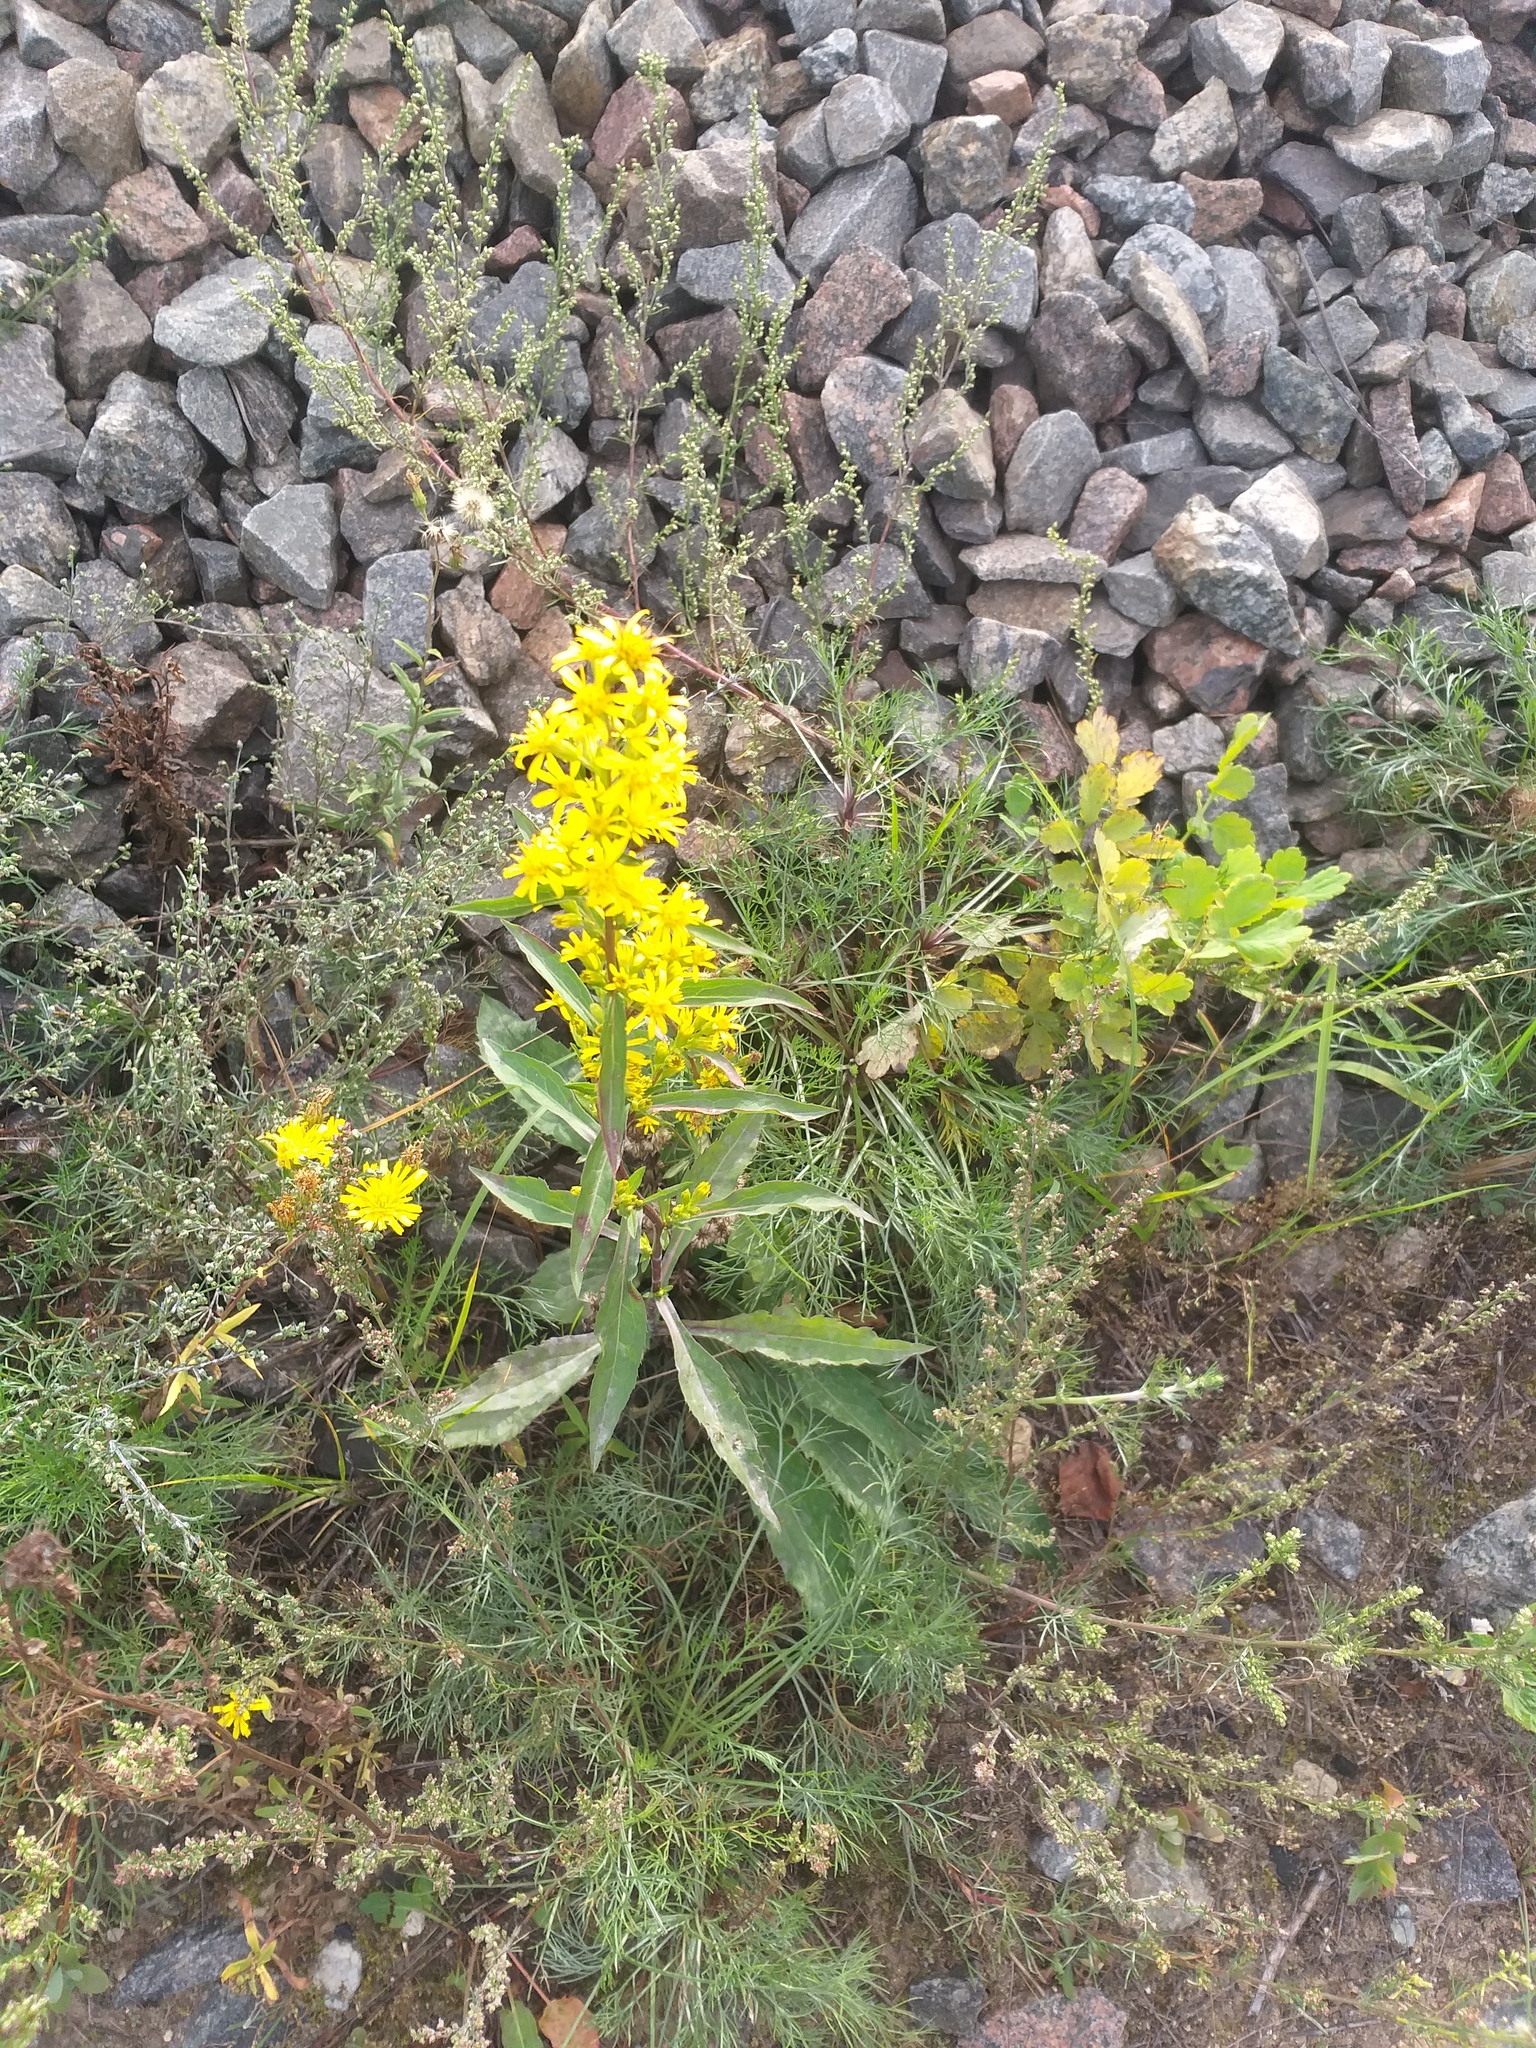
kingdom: Plantae
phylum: Tracheophyta
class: Magnoliopsida
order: Asterales
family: Asteraceae
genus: Solidago
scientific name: Solidago virgaurea
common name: Goldenrod
